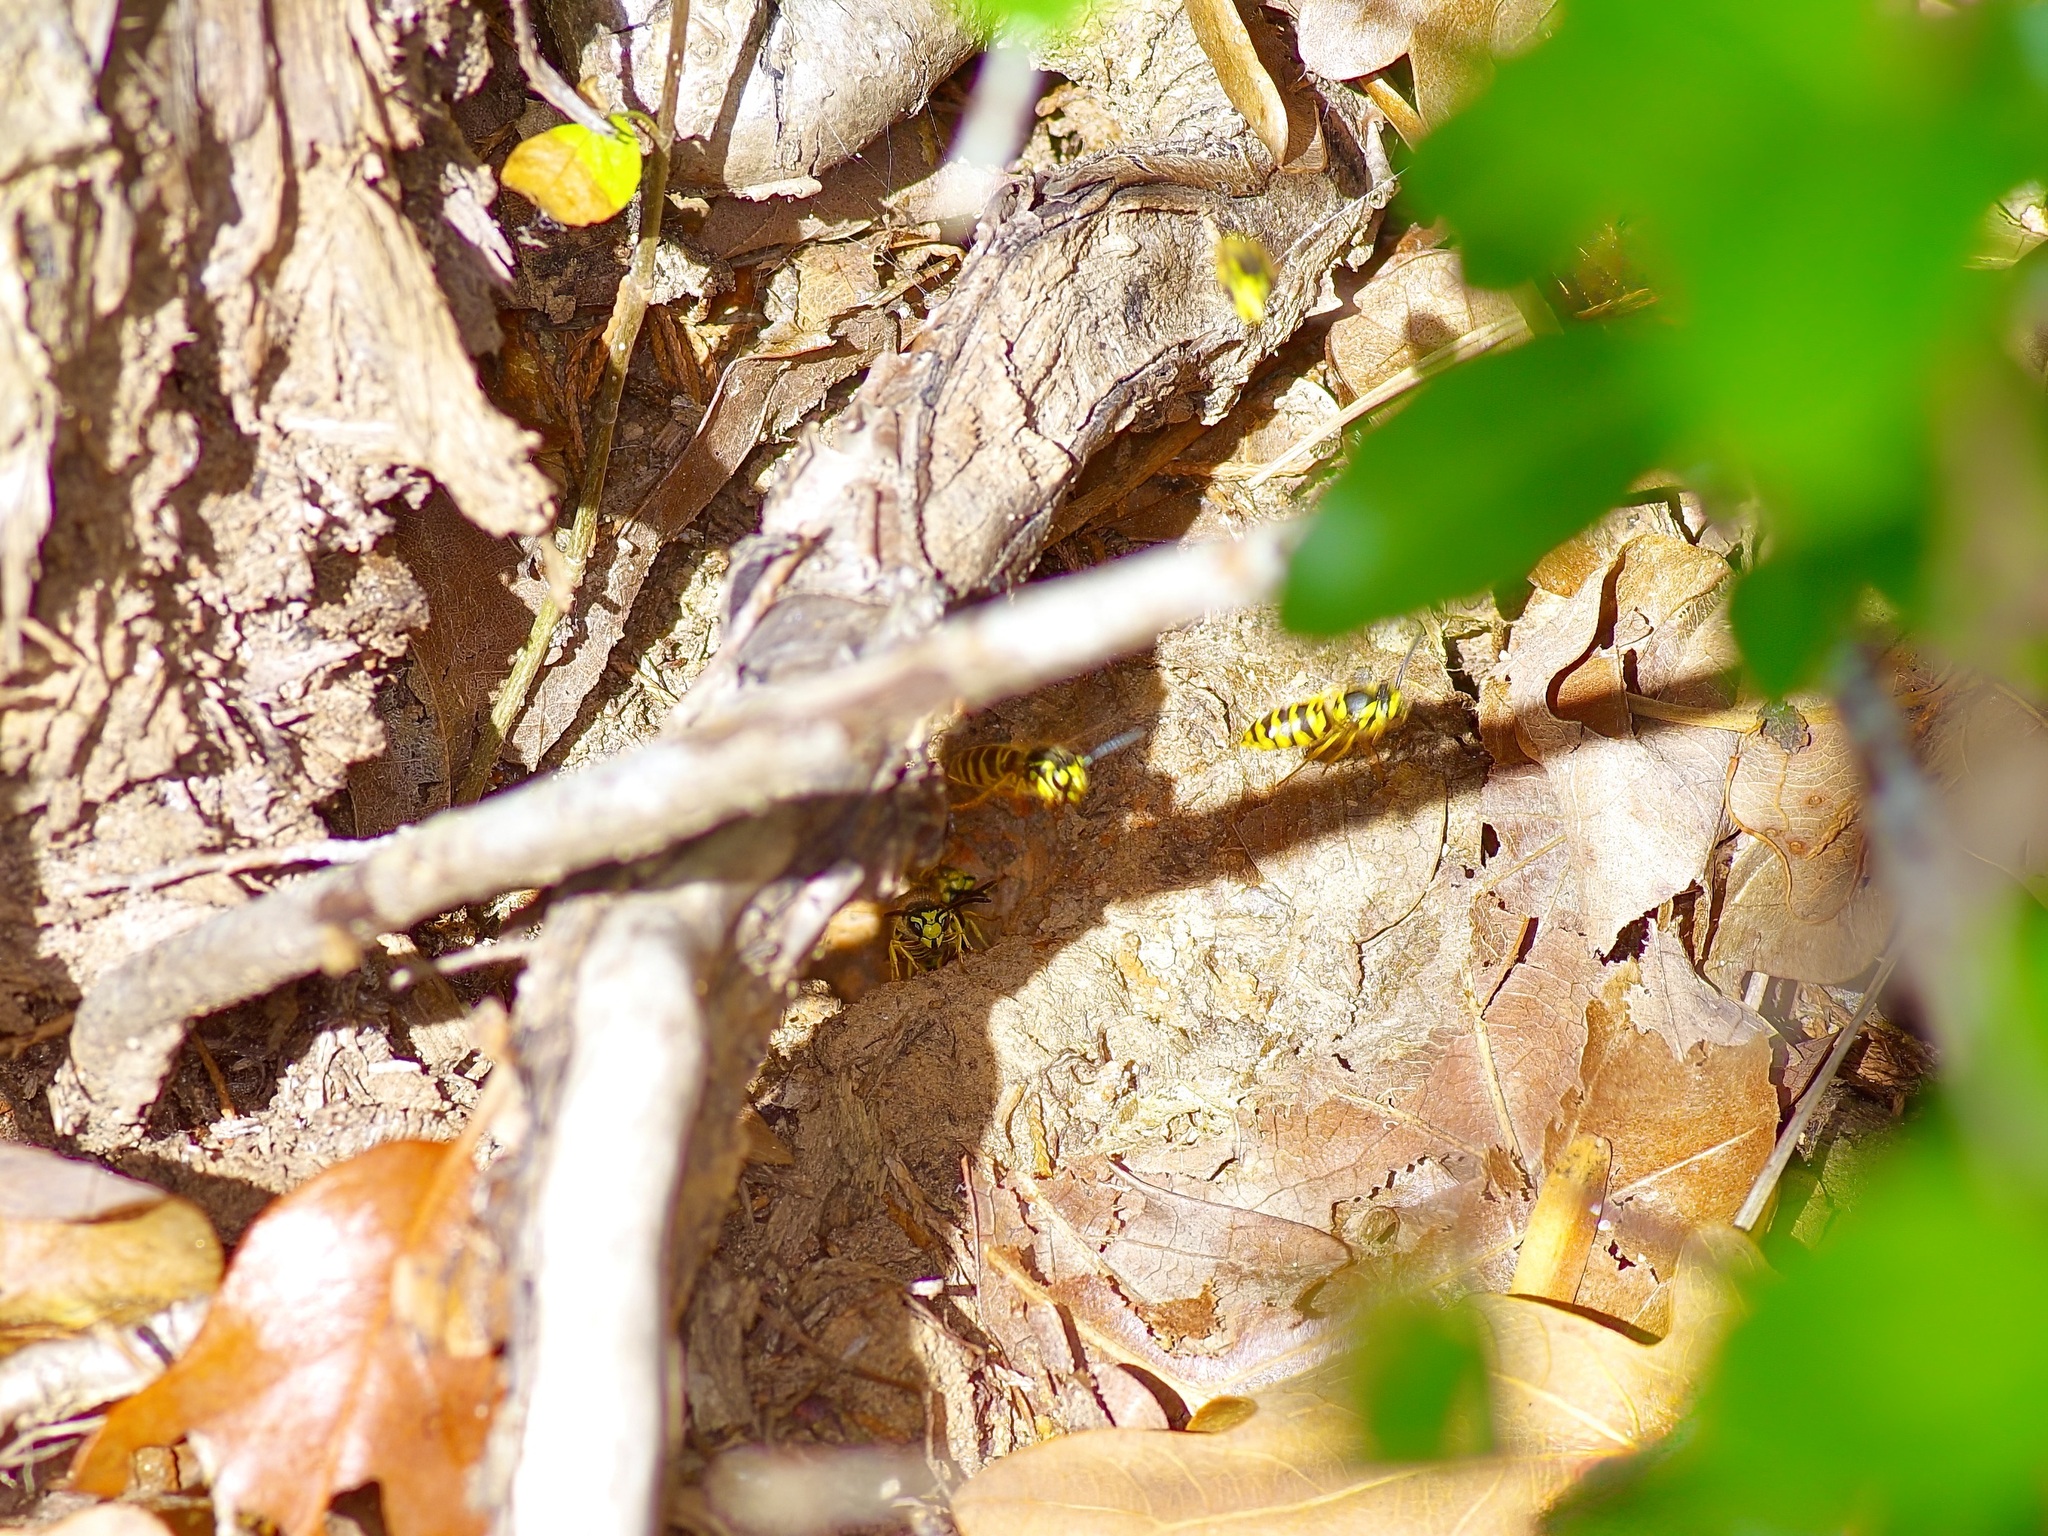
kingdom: Animalia
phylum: Arthropoda
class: Insecta
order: Hymenoptera
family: Vespidae
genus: Vespula
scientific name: Vespula maculifrons
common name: Eastern yellowjacket
